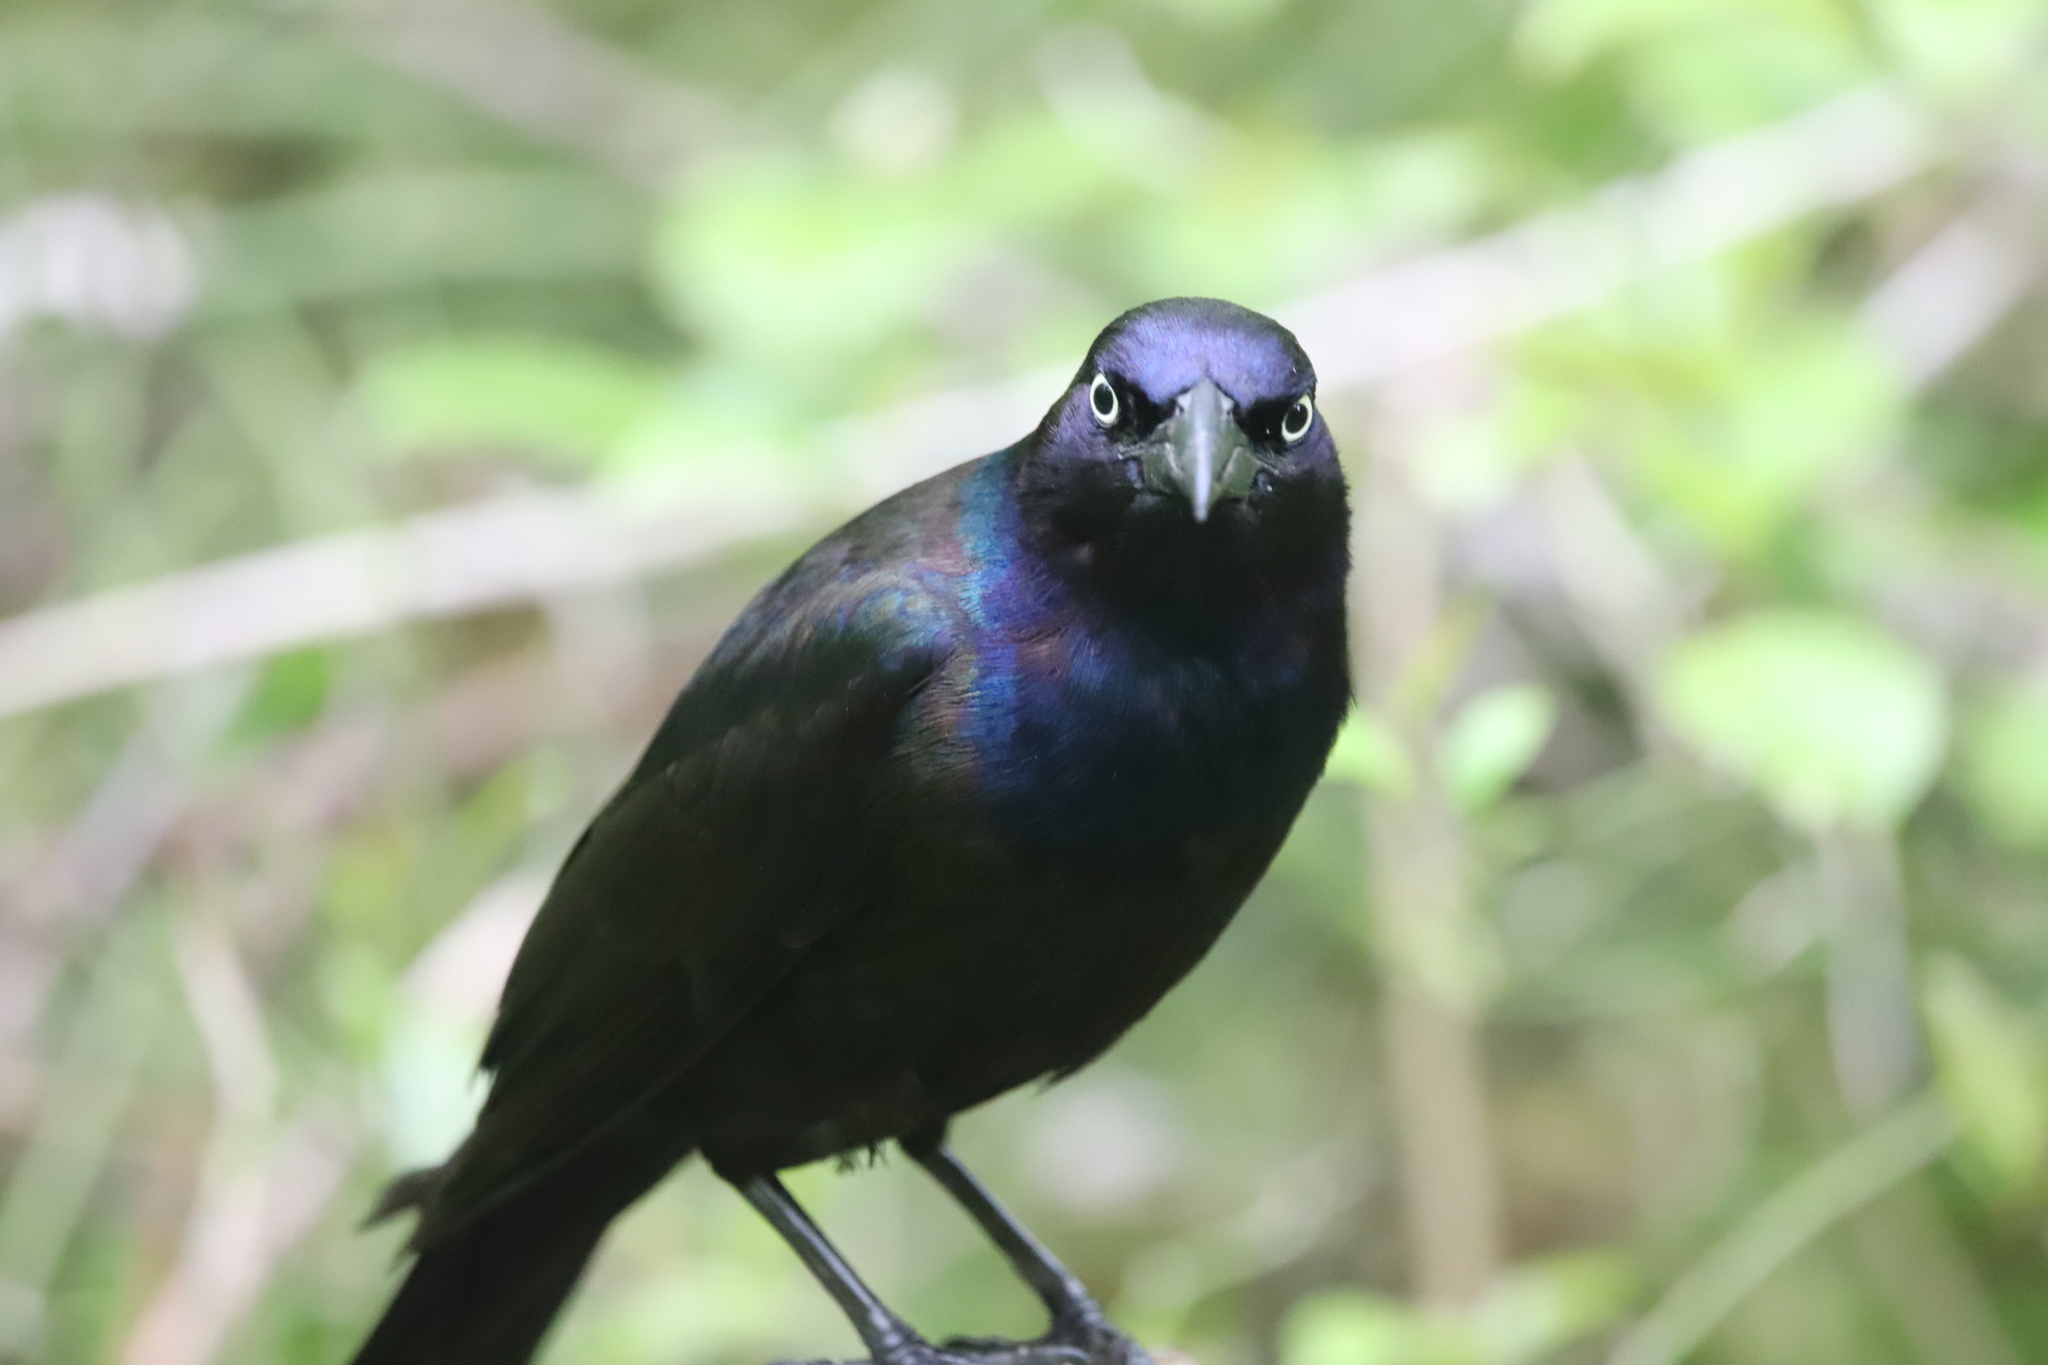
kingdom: Animalia
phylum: Chordata
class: Aves
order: Passeriformes
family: Icteridae
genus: Quiscalus
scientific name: Quiscalus quiscula
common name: Common grackle
